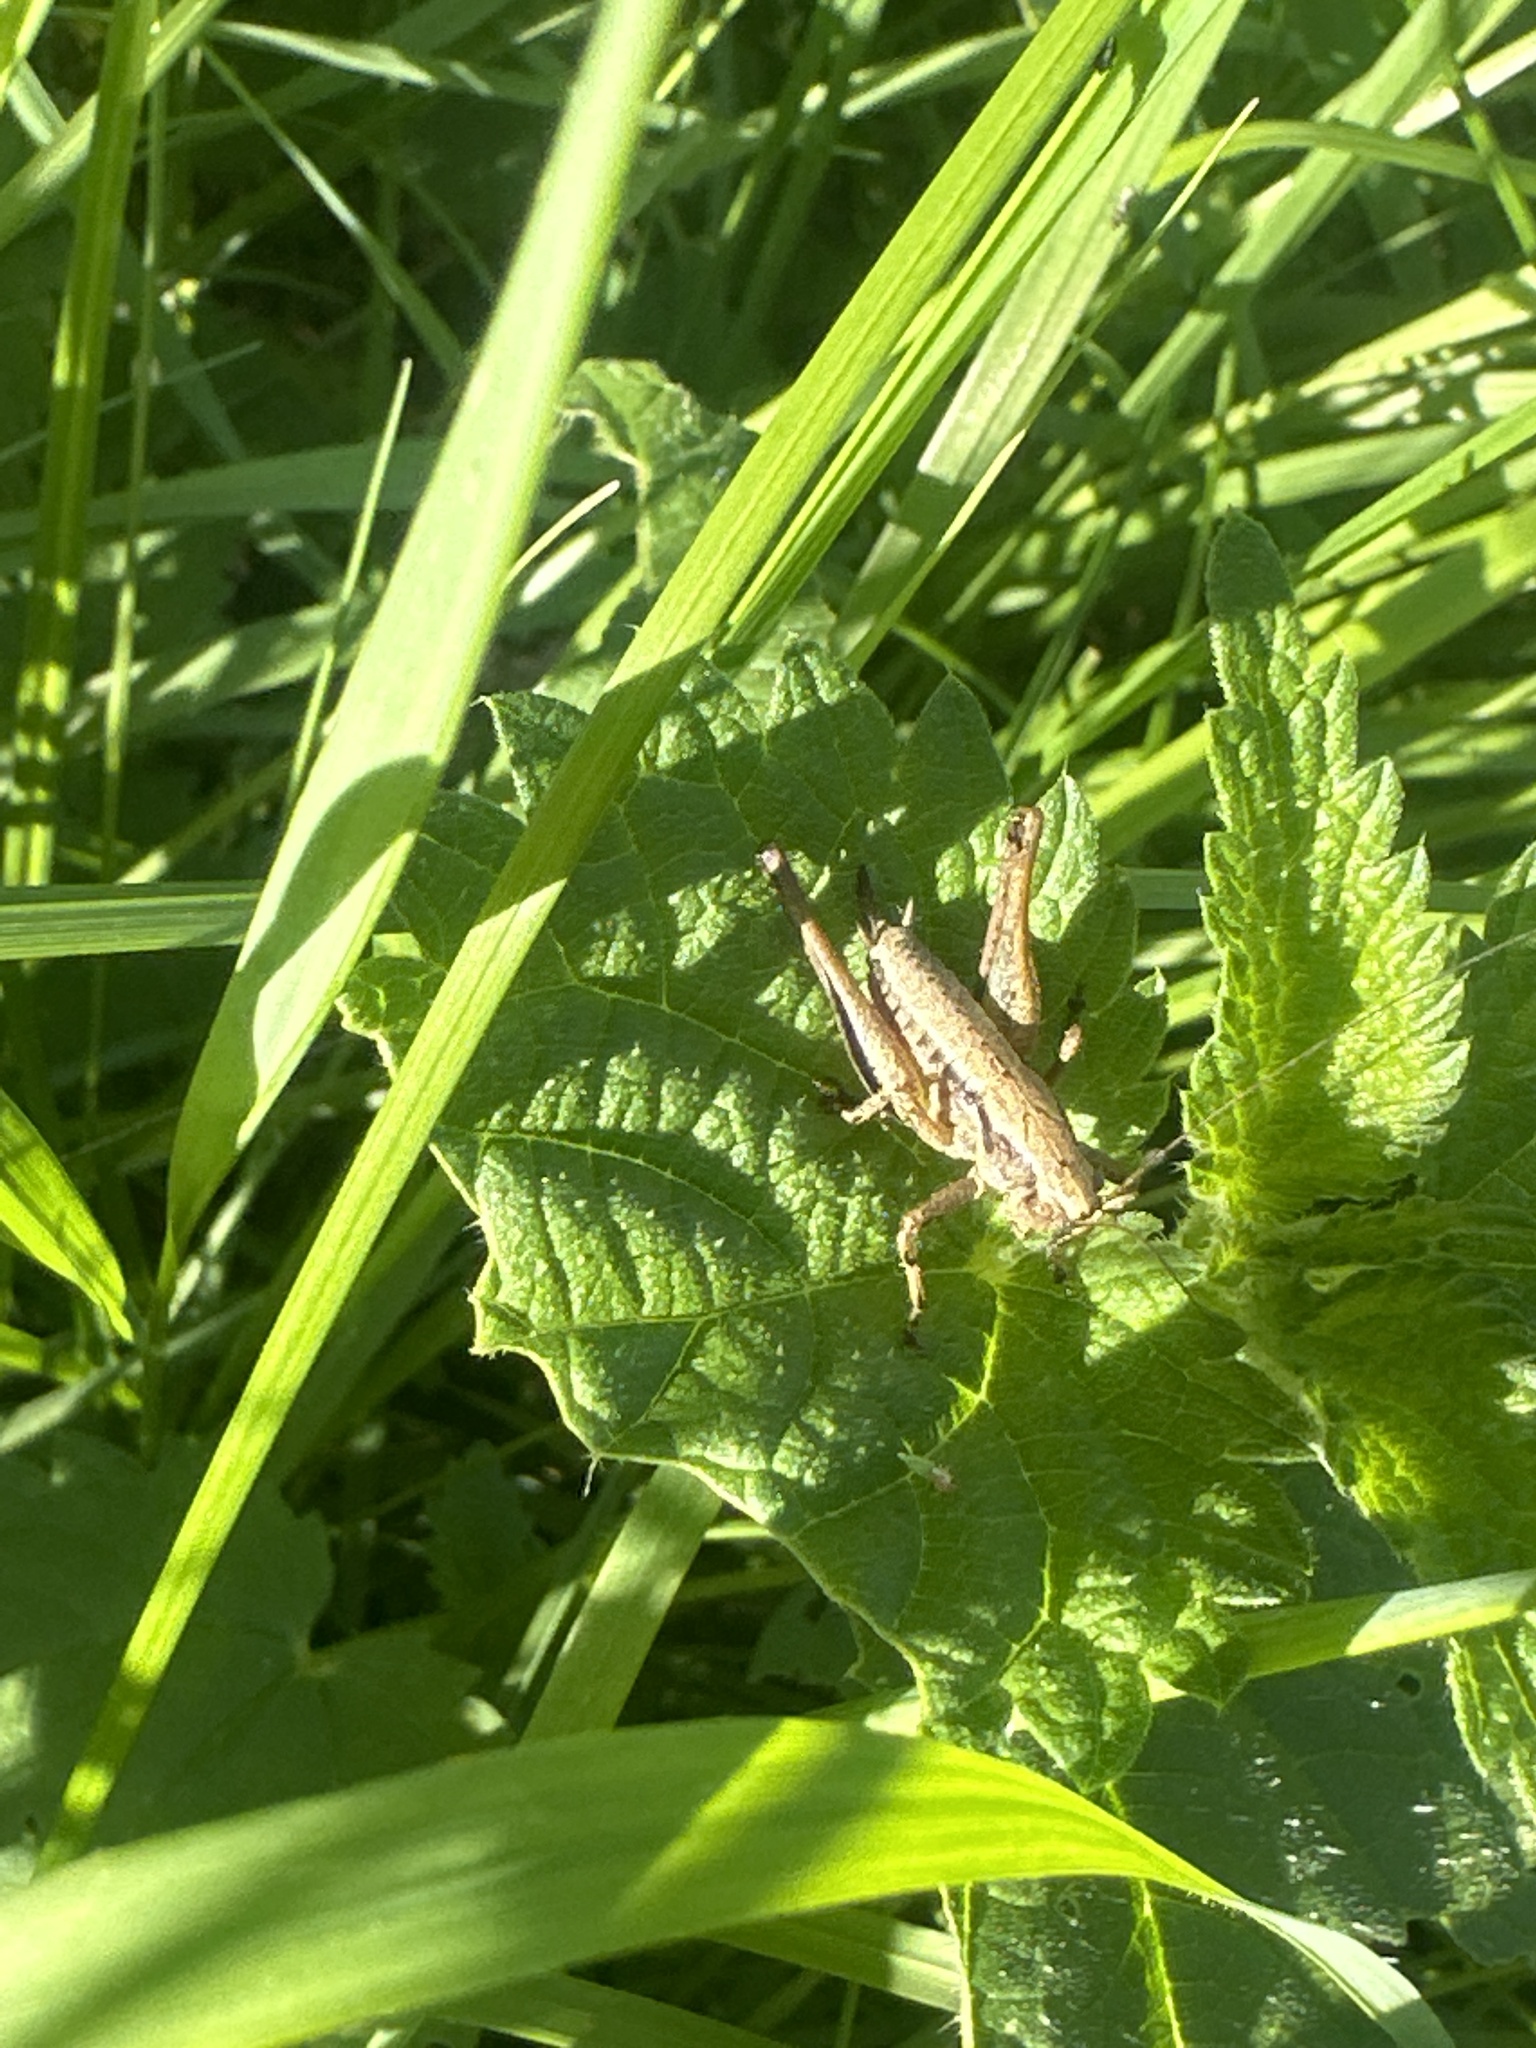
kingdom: Animalia
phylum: Arthropoda
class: Insecta
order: Orthoptera
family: Tettigoniidae
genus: Pholidoptera
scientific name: Pholidoptera griseoaptera
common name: Dark bush-cricket
